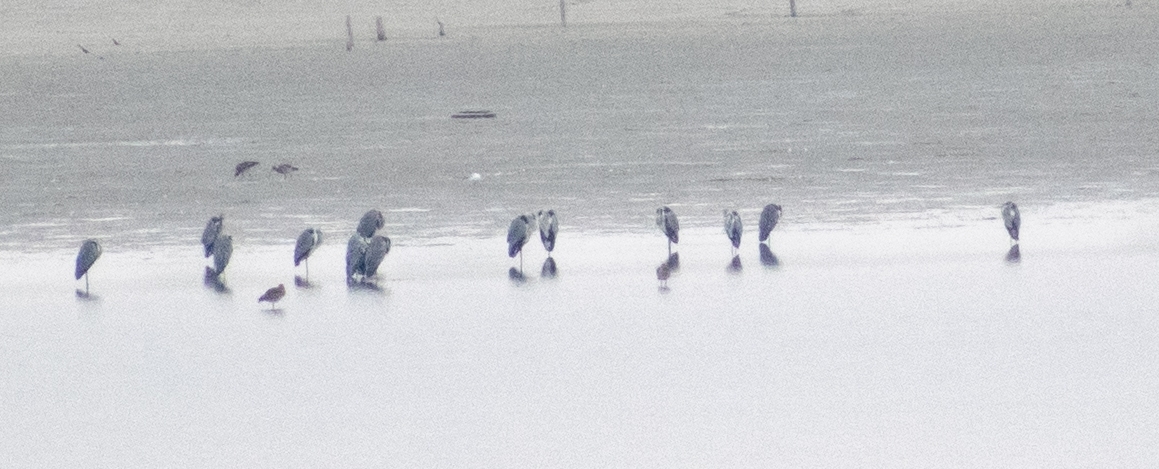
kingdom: Animalia
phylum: Chordata
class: Aves
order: Pelecaniformes
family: Ardeidae
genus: Ardea
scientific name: Ardea cinerea
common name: Grey heron
